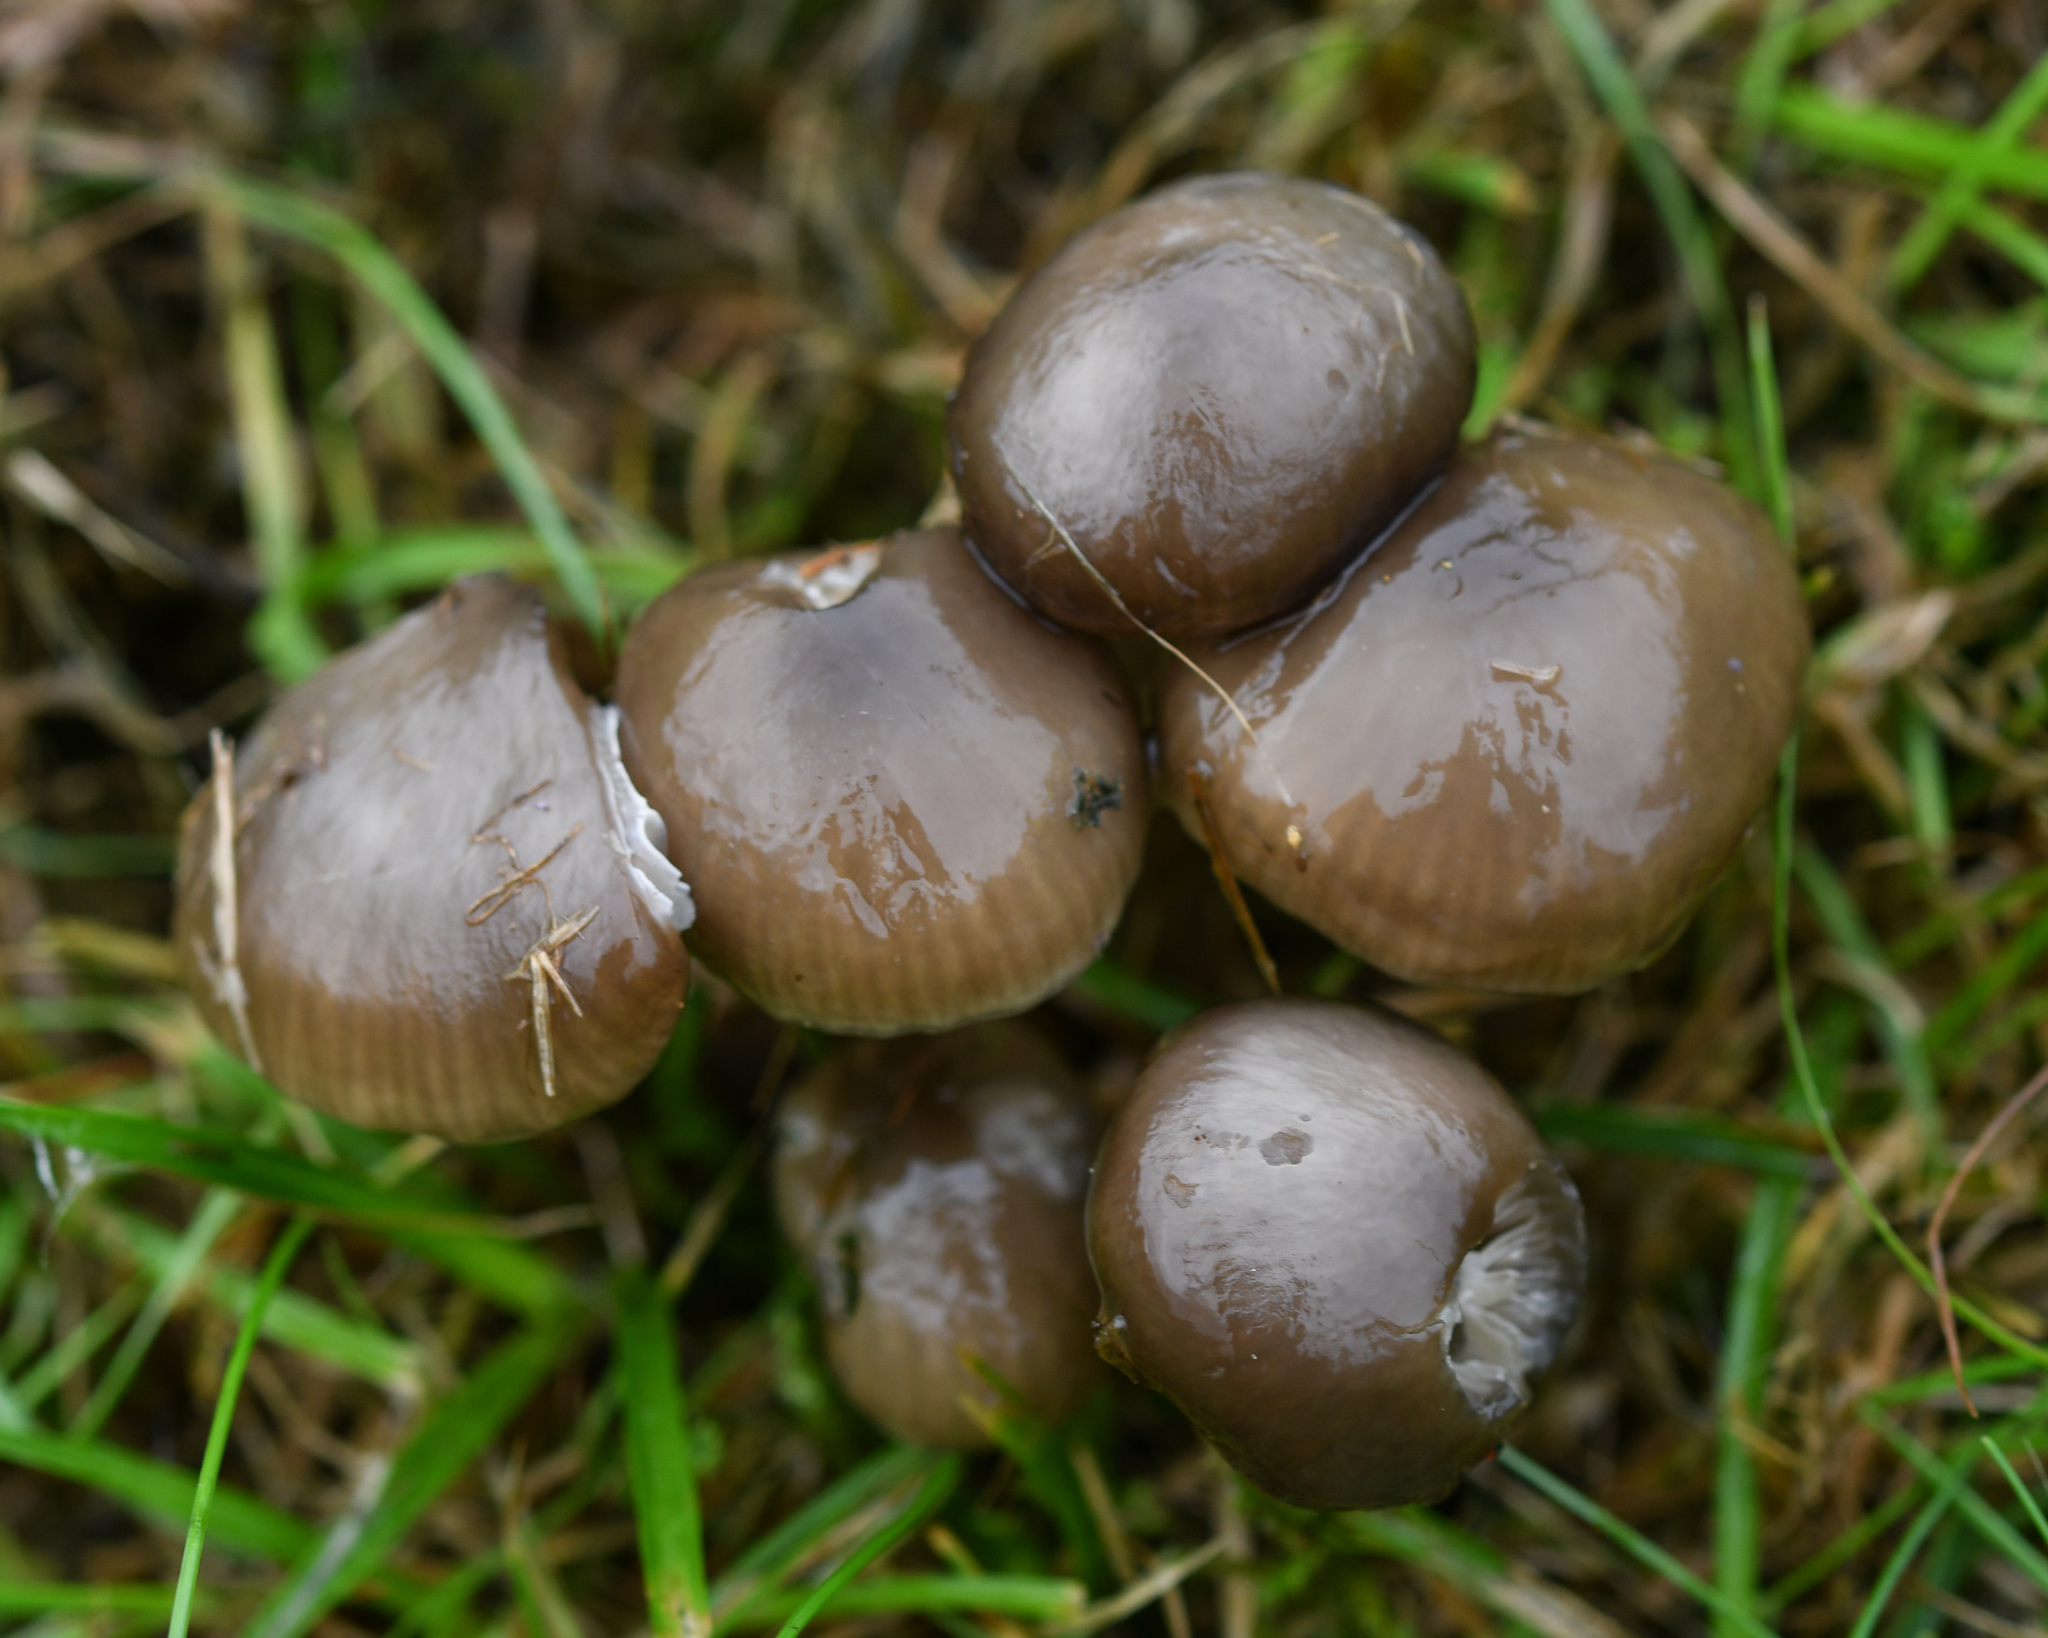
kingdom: Fungi
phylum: Basidiomycota
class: Agaricomycetes
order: Agaricales
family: Hygrophoraceae
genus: Gliophorus
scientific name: Gliophorus irrigatus
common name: Slimy waxcap
